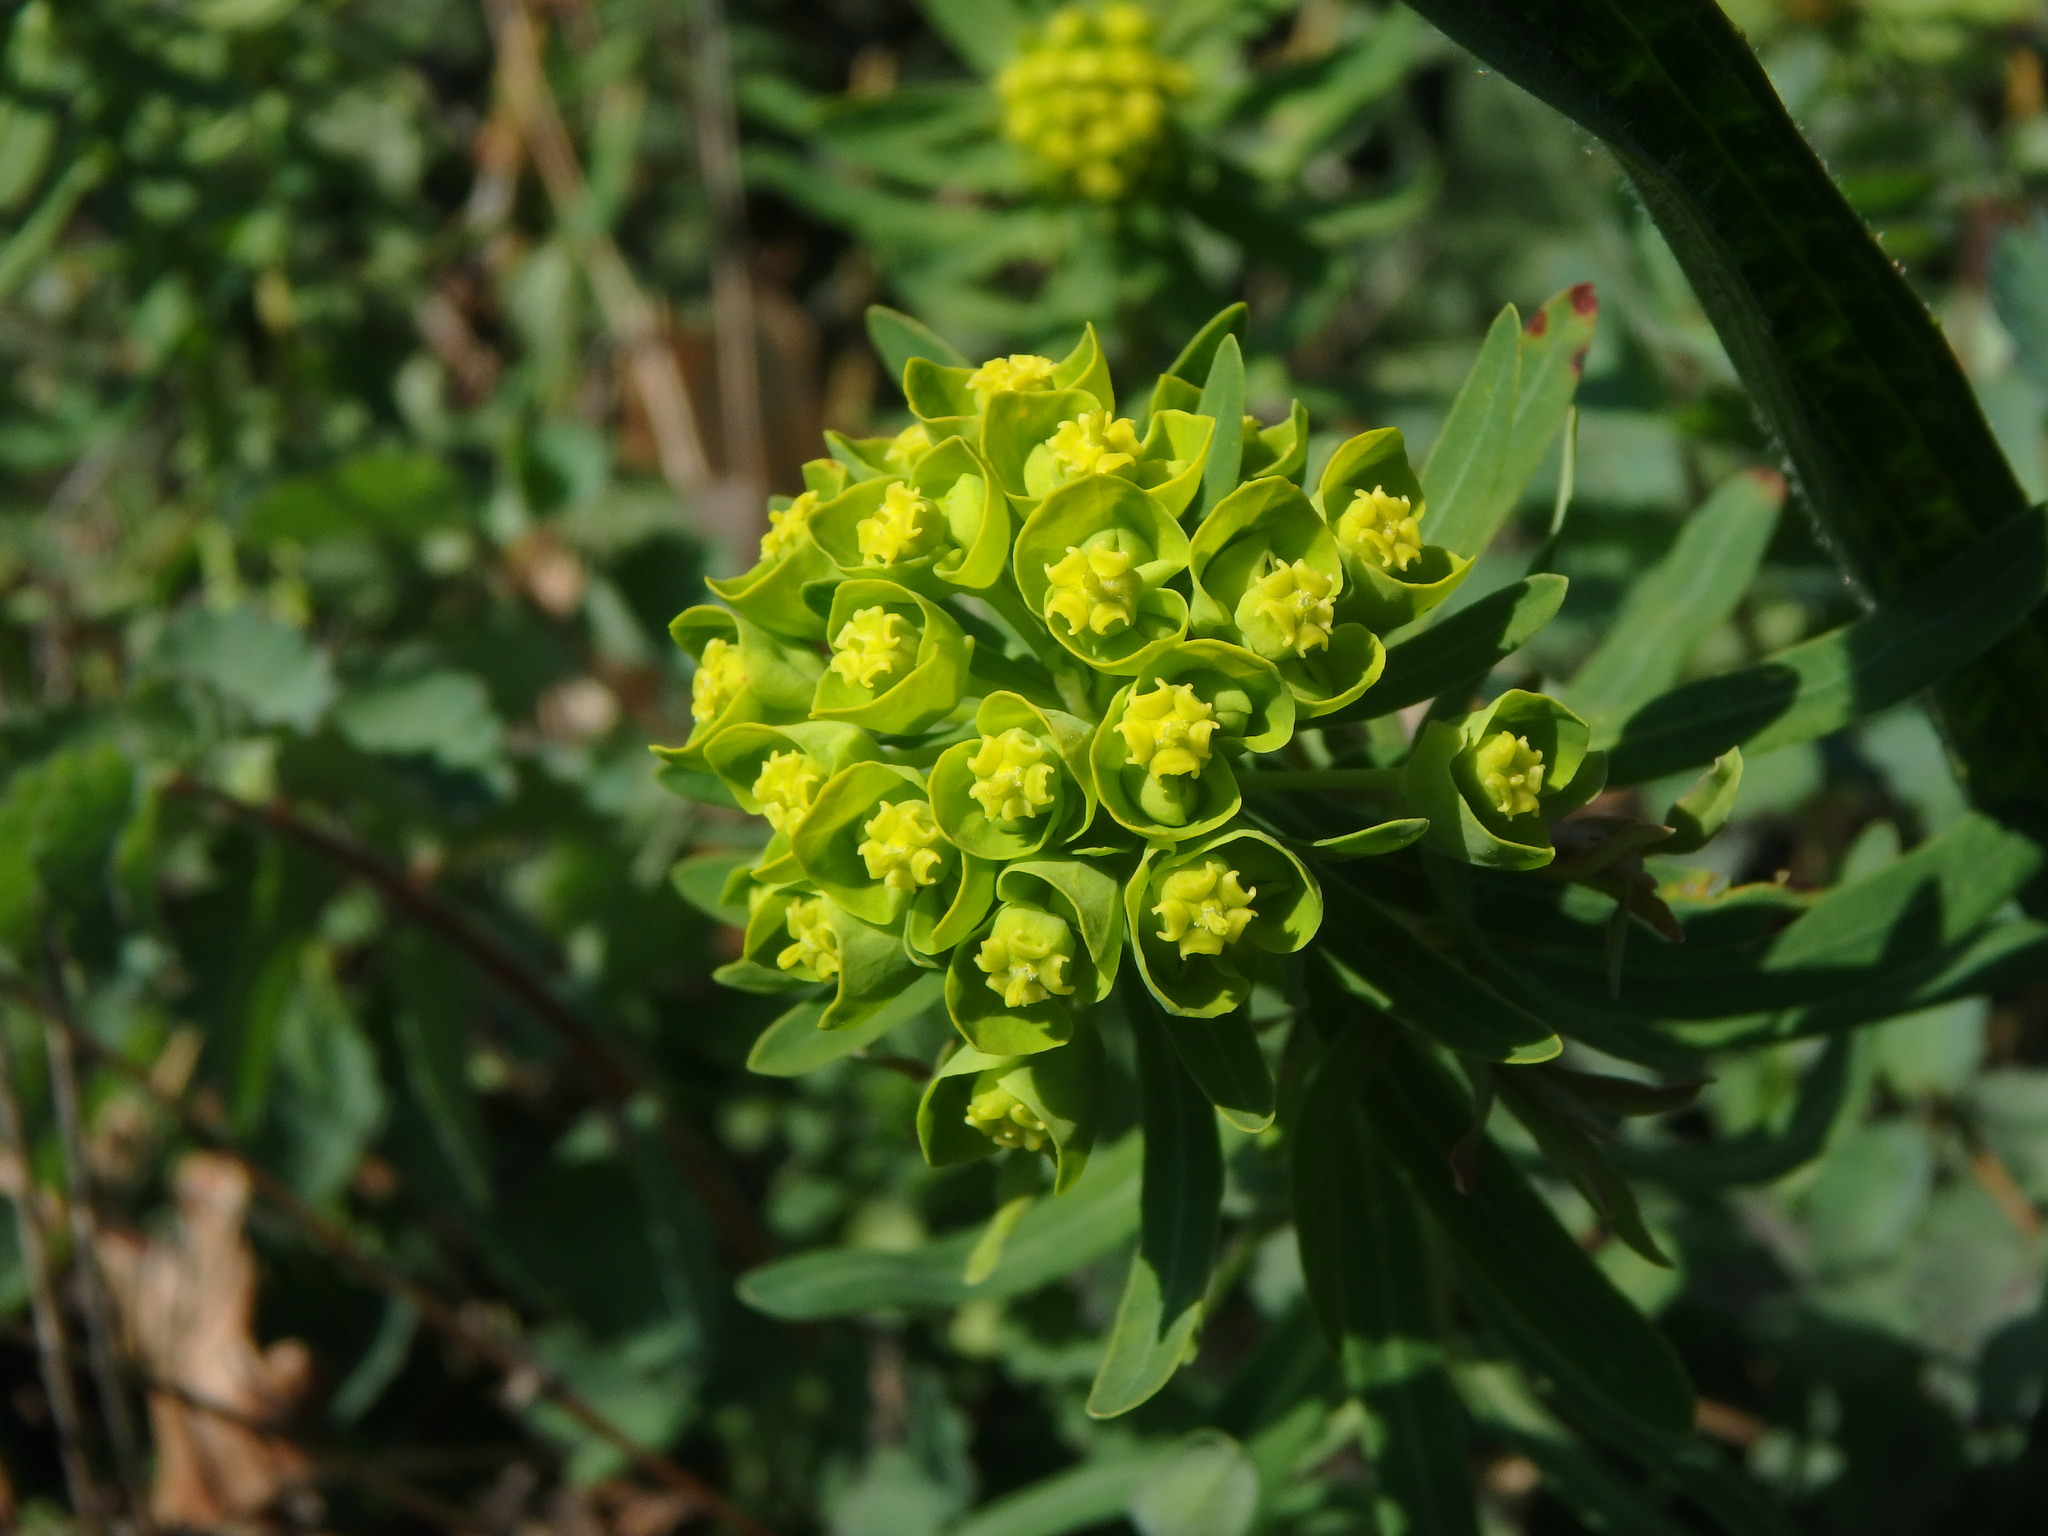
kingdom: Plantae
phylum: Tracheophyta
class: Magnoliopsida
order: Malpighiales
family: Euphorbiaceae
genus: Euphorbia
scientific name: Euphorbia cyparissias
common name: Cypress spurge
